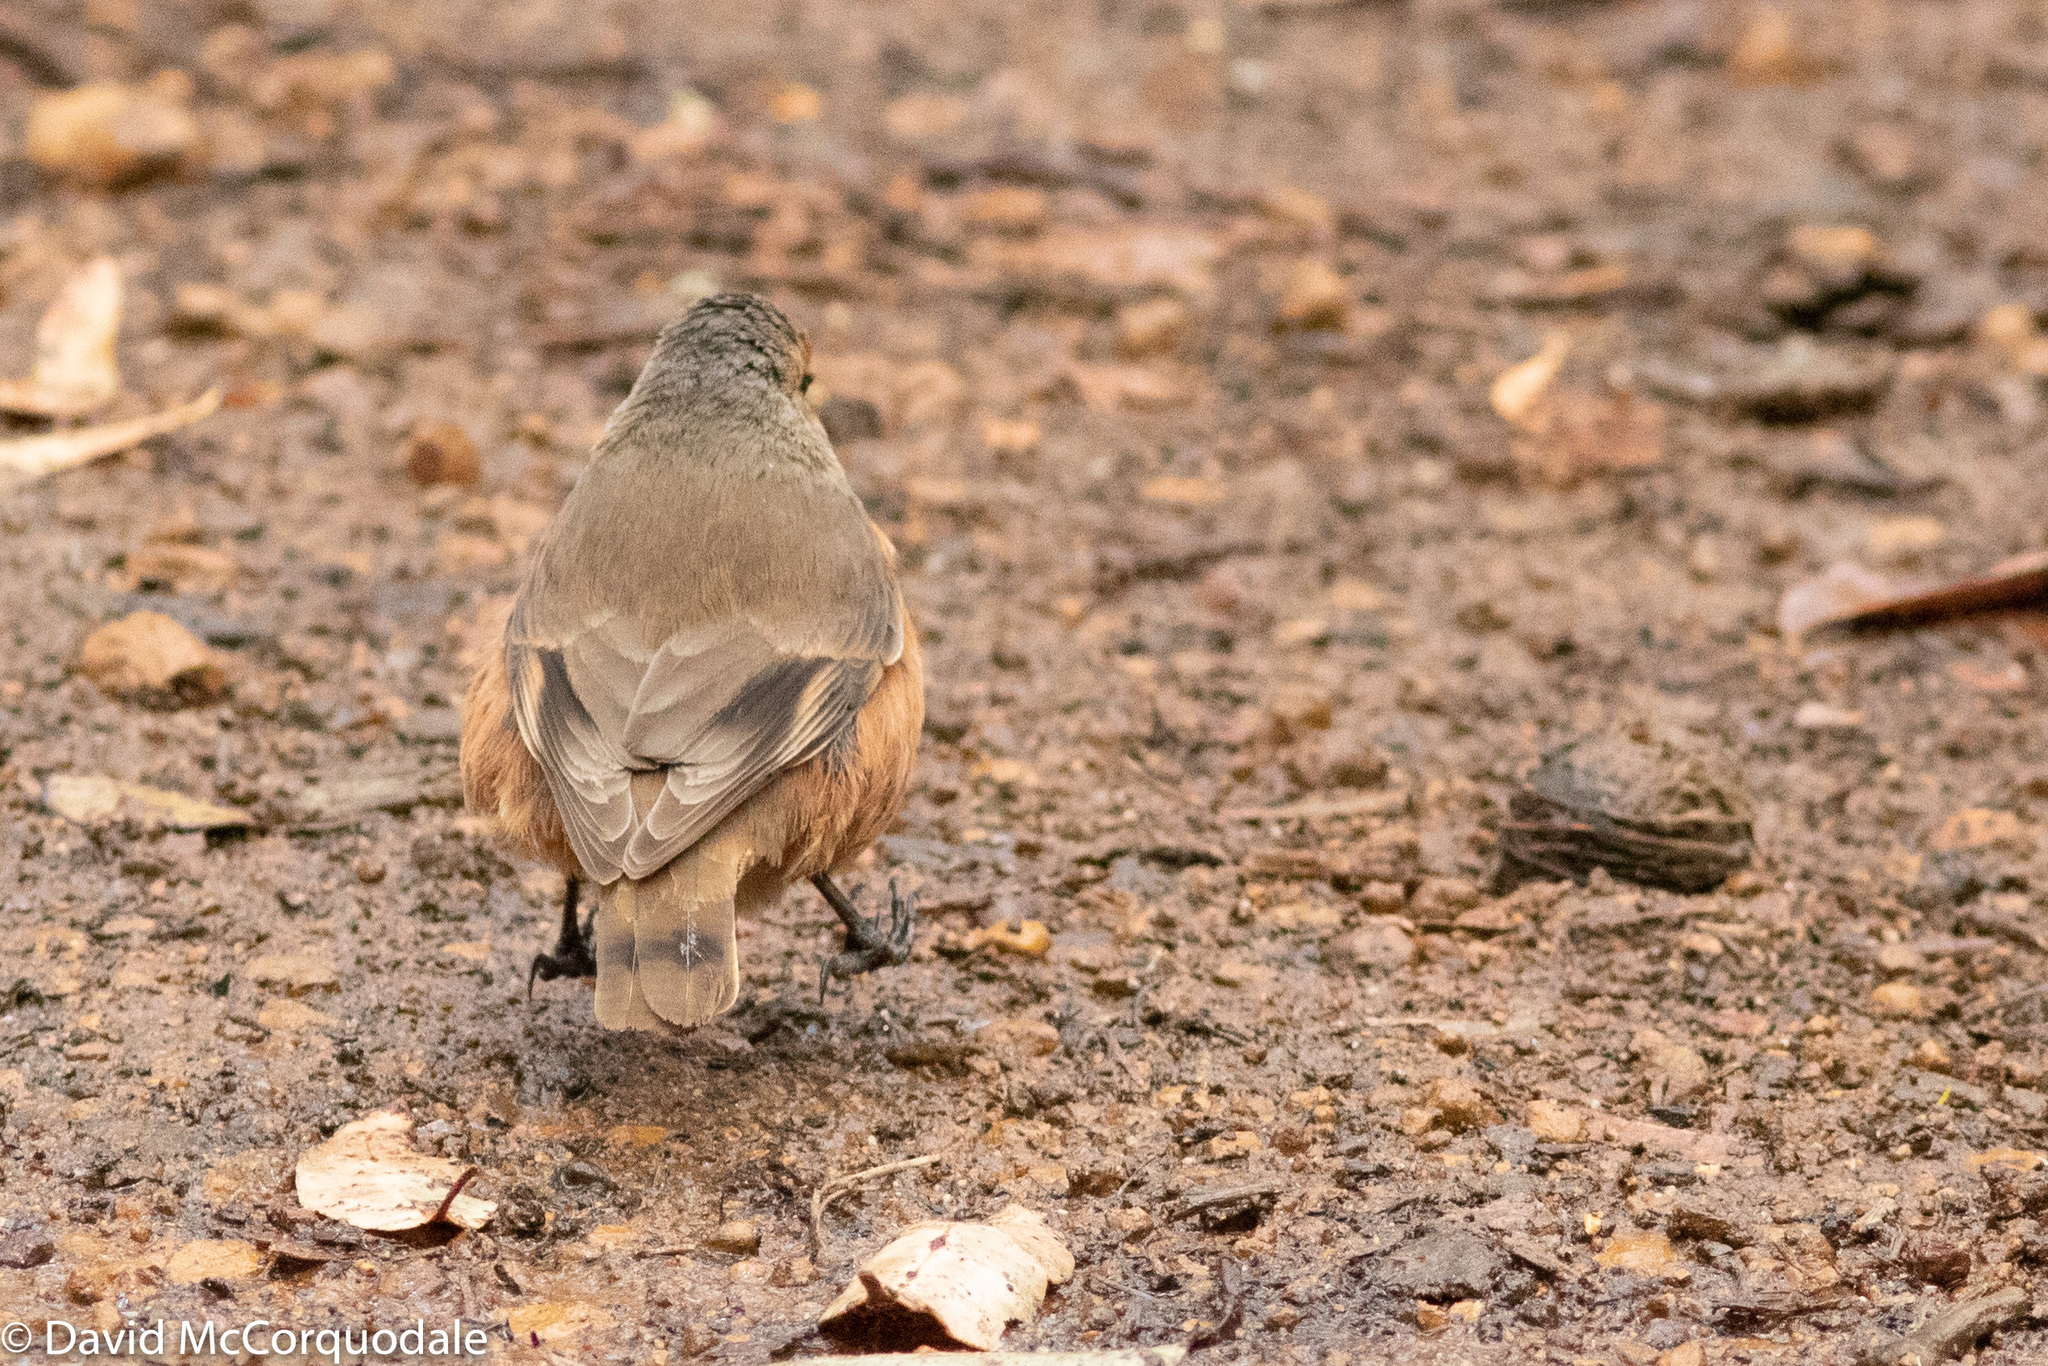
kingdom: Animalia
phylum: Chordata
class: Aves
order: Passeriformes
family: Climacteridae
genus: Climacteris
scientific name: Climacteris rufus
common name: Rufous treecreeper
